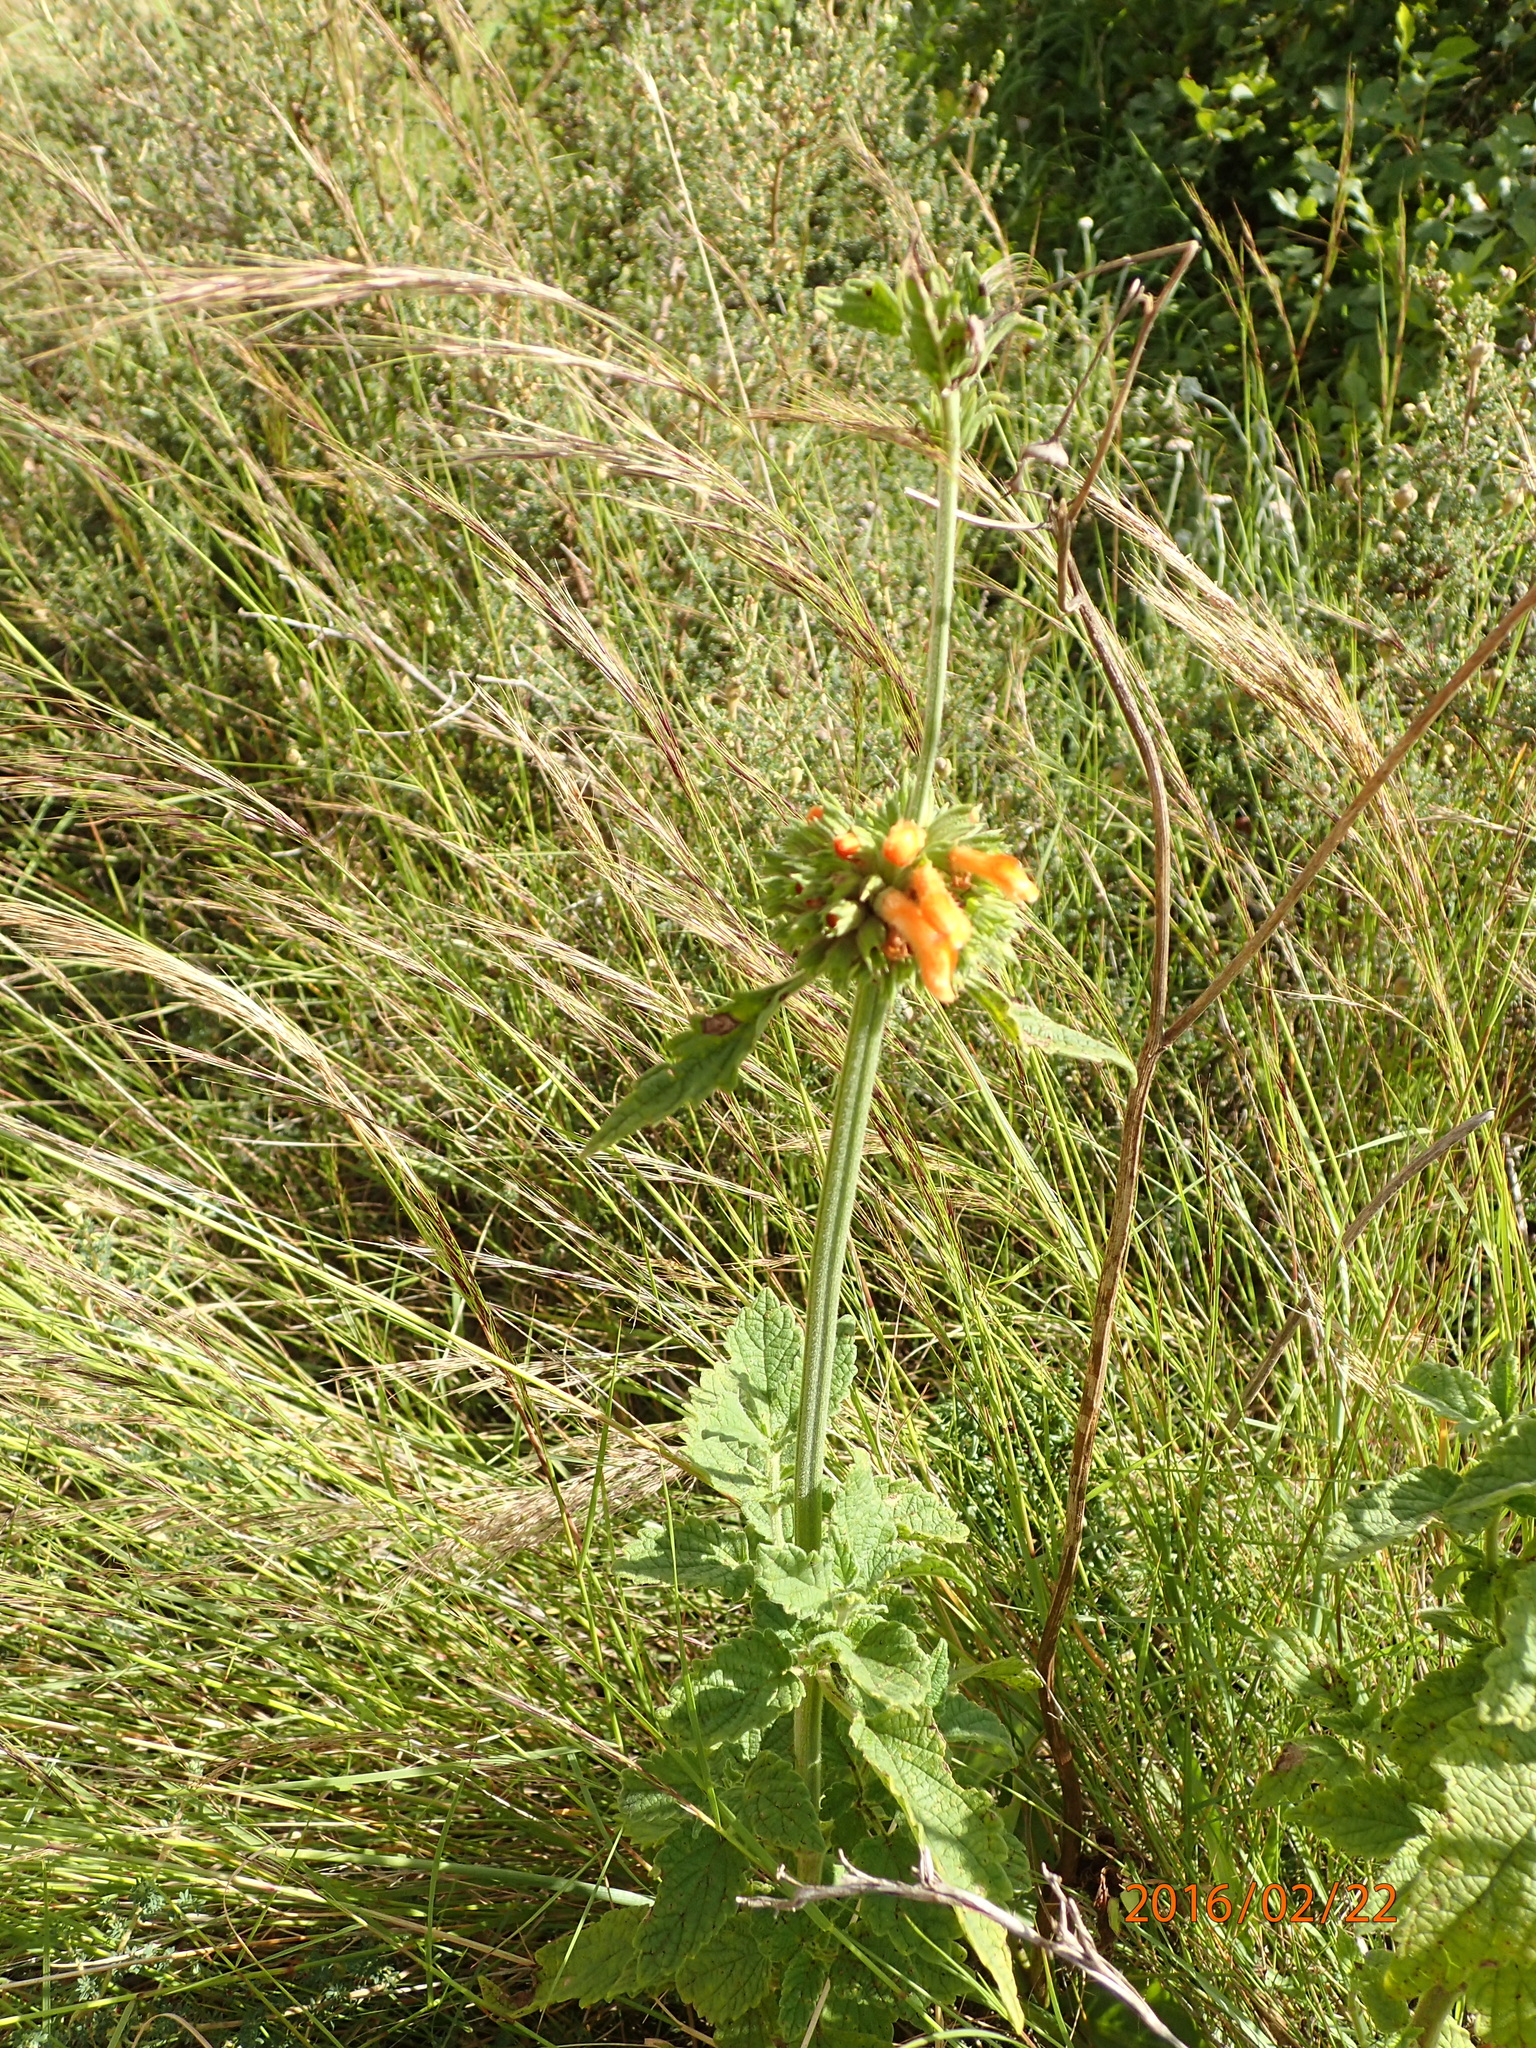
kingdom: Plantae
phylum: Tracheophyta
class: Magnoliopsida
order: Lamiales
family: Lamiaceae
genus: Leonotis
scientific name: Leonotis ocymifolia
